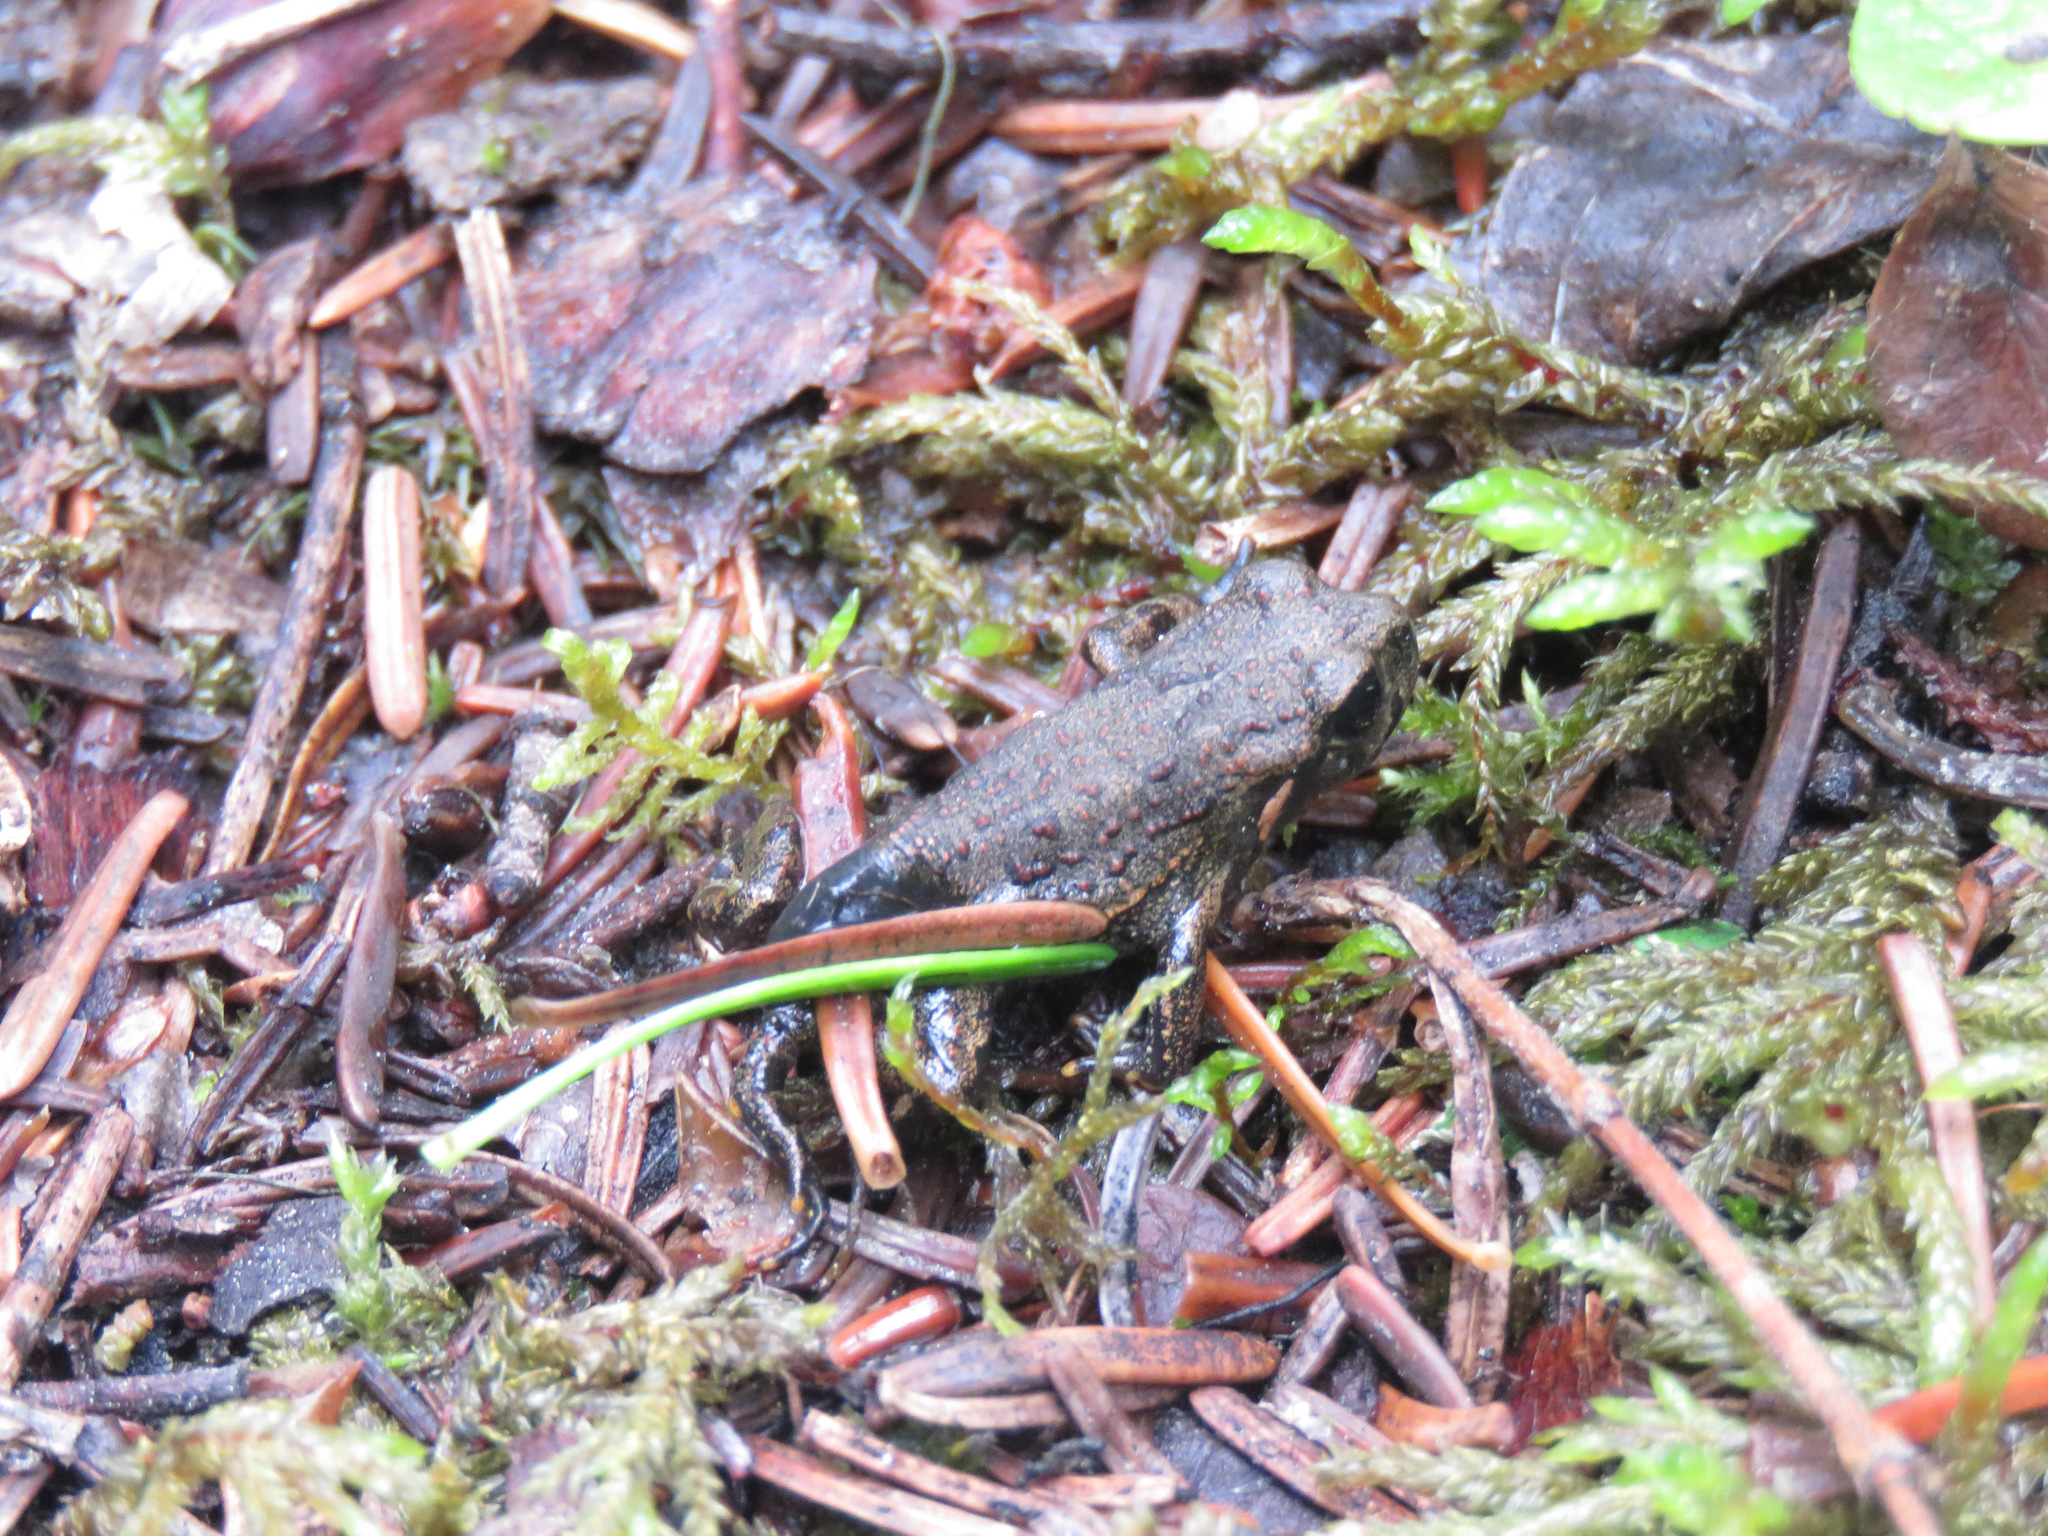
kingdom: Animalia
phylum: Chordata
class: Amphibia
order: Anura
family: Bufonidae
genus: Anaxyrus
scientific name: Anaxyrus boreas
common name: Western toad
